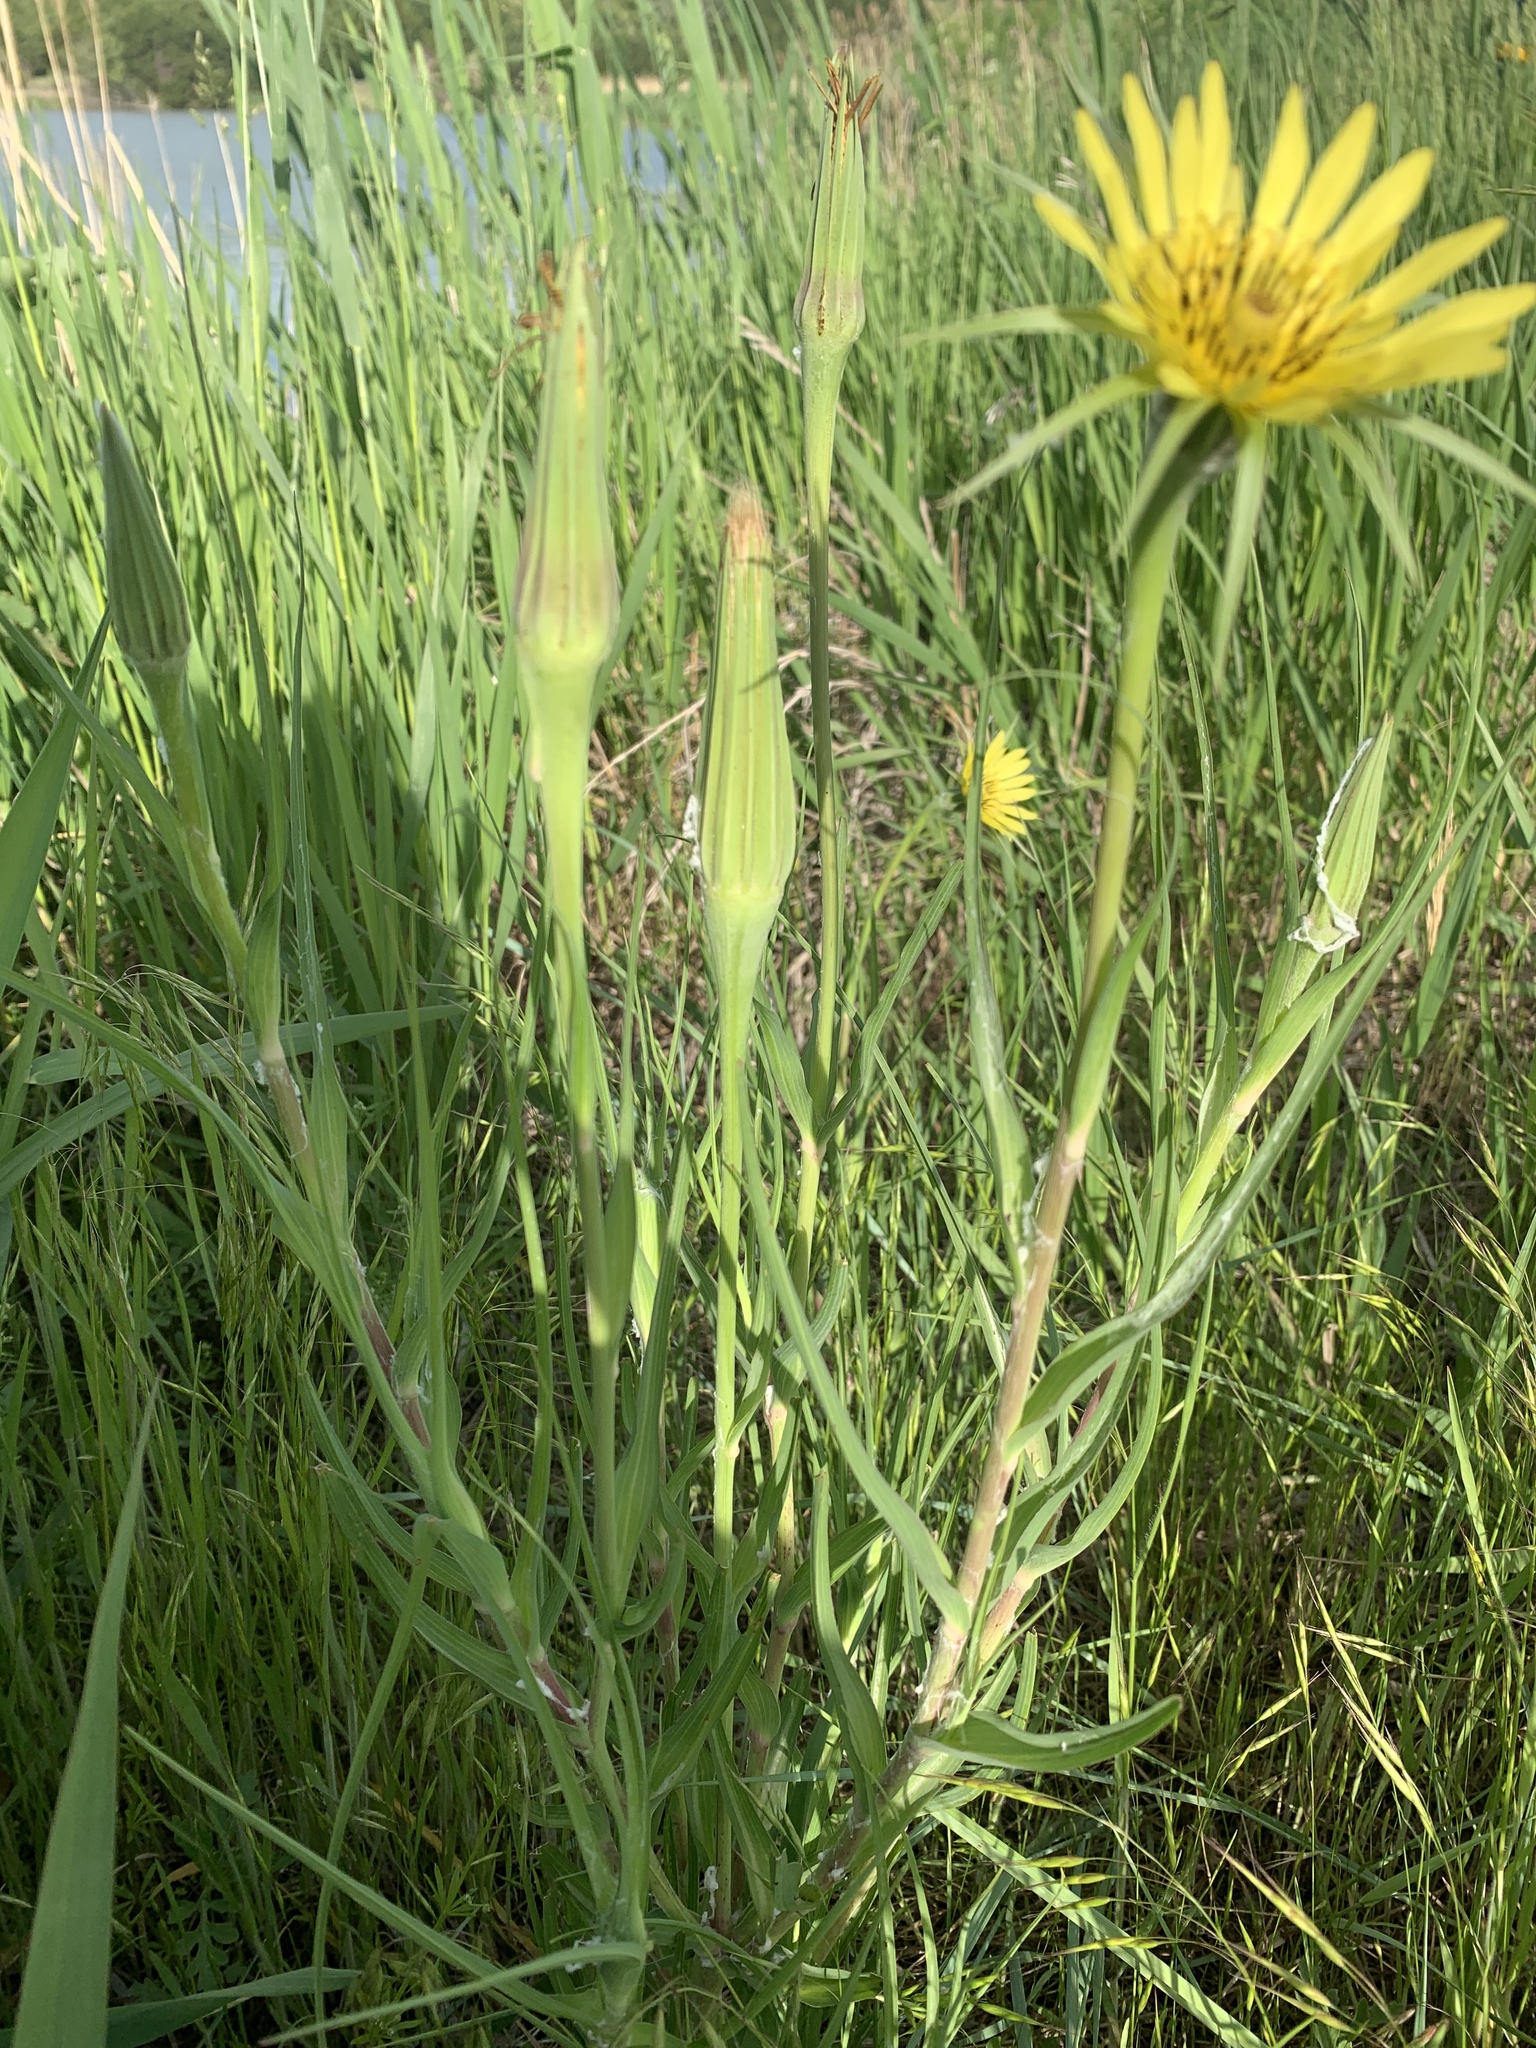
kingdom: Plantae
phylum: Tracheophyta
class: Magnoliopsida
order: Asterales
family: Asteraceae
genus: Tragopogon
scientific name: Tragopogon dubius
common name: Yellow salsify
